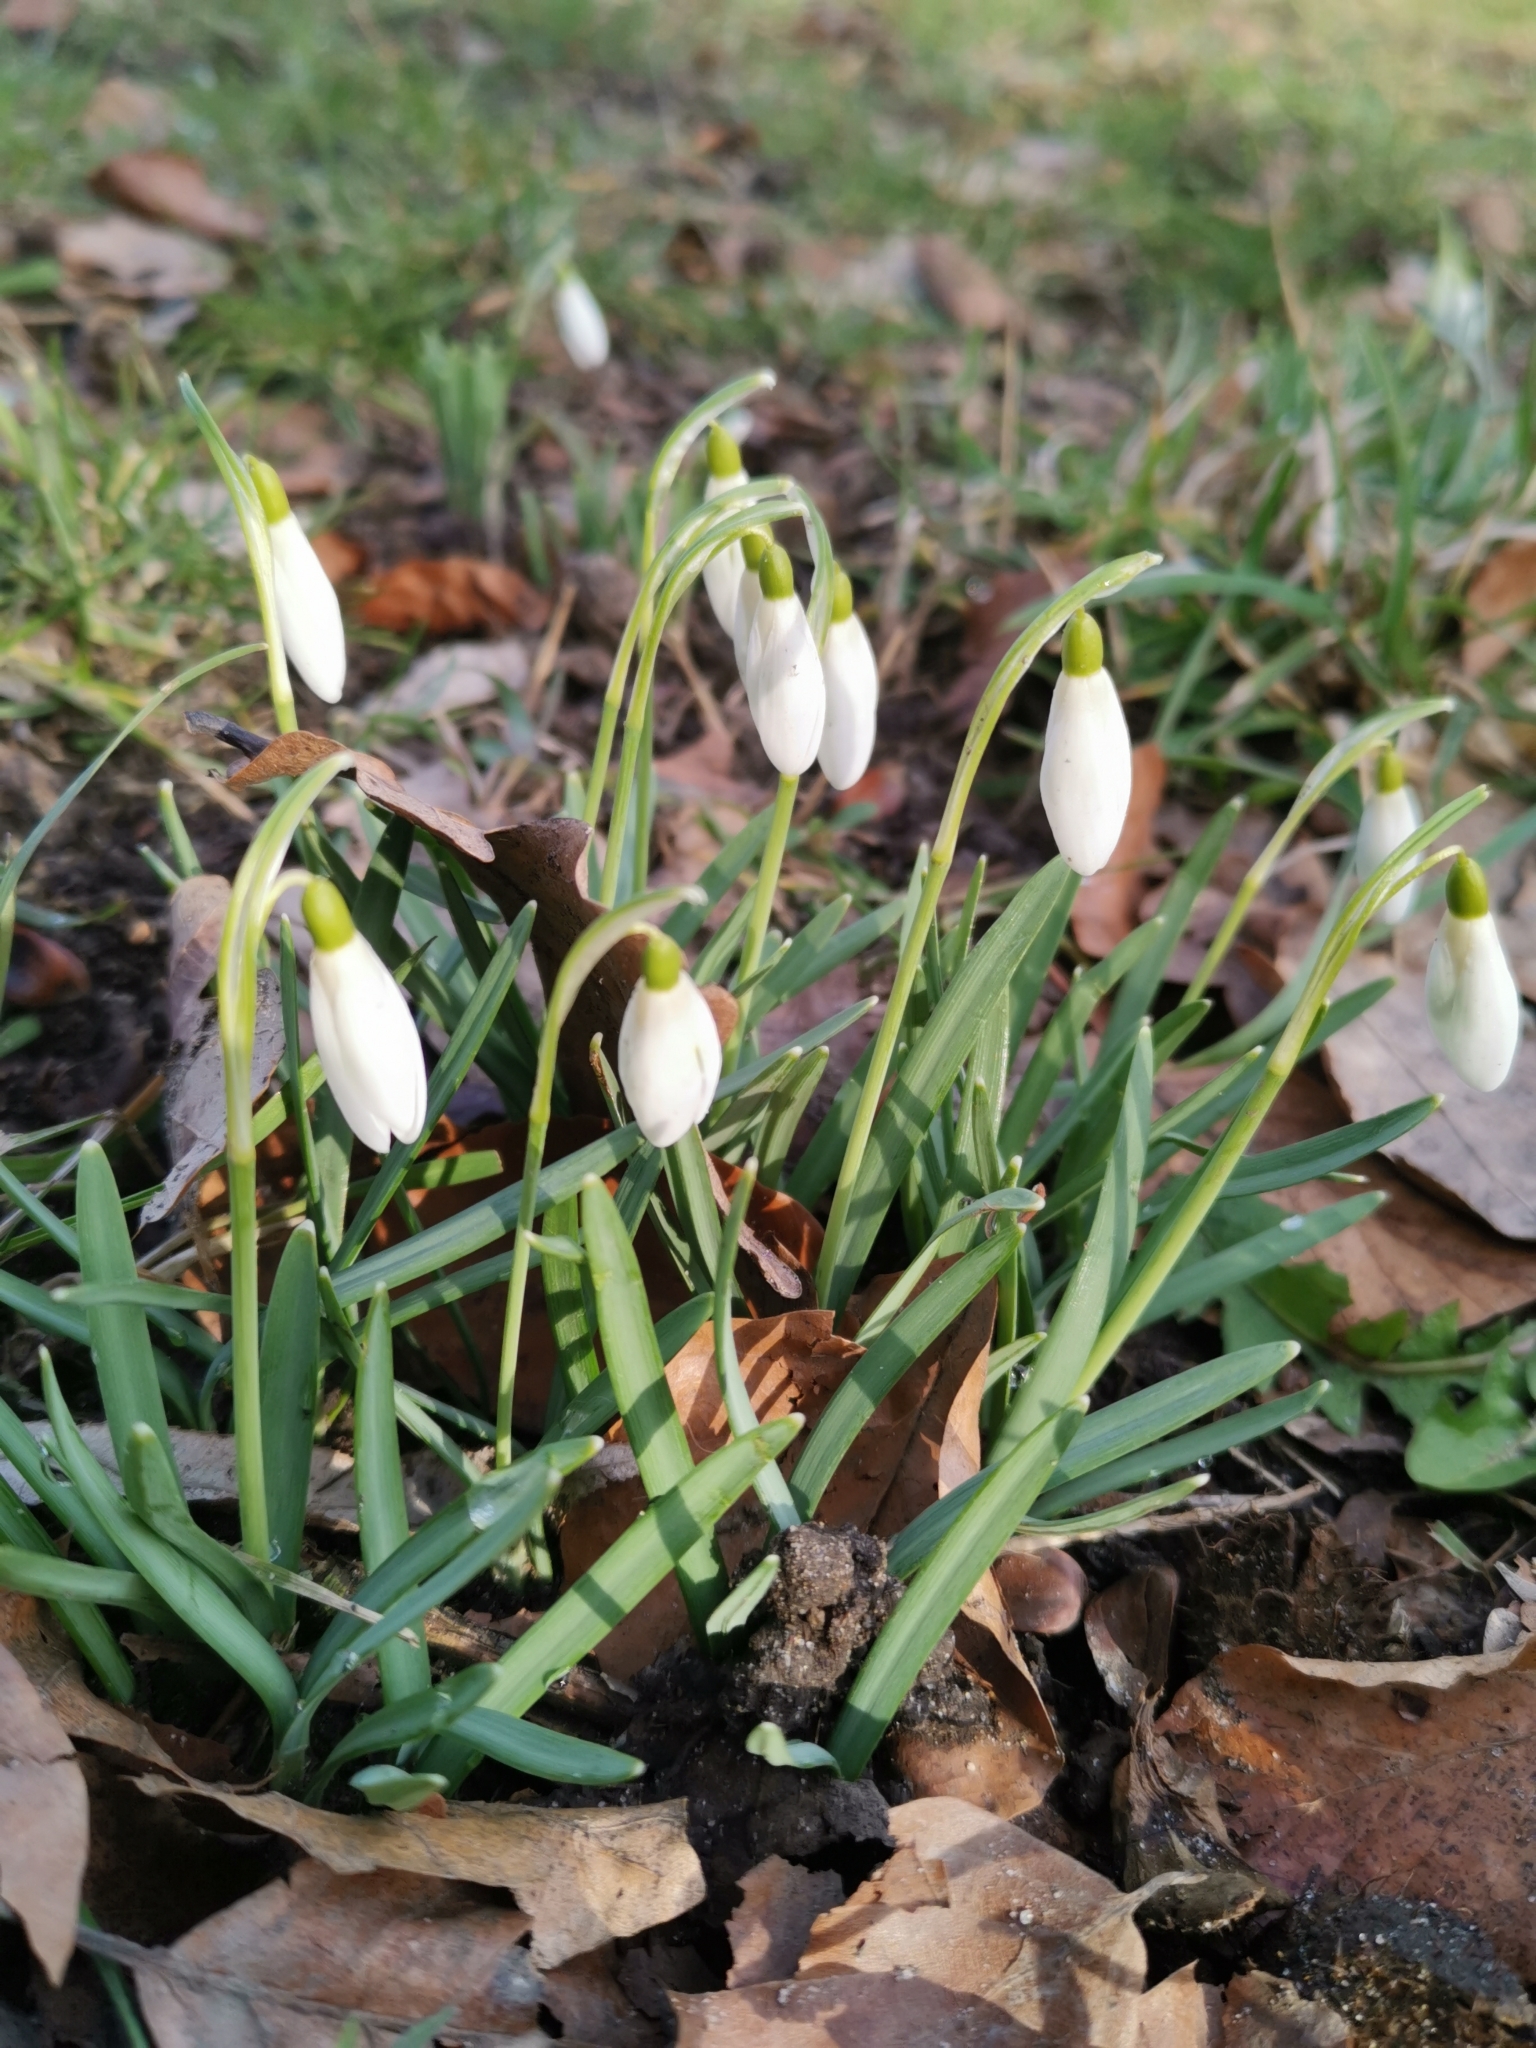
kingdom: Plantae
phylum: Tracheophyta
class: Liliopsida
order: Asparagales
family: Amaryllidaceae
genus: Galanthus
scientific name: Galanthus nivalis
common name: Snowdrop
